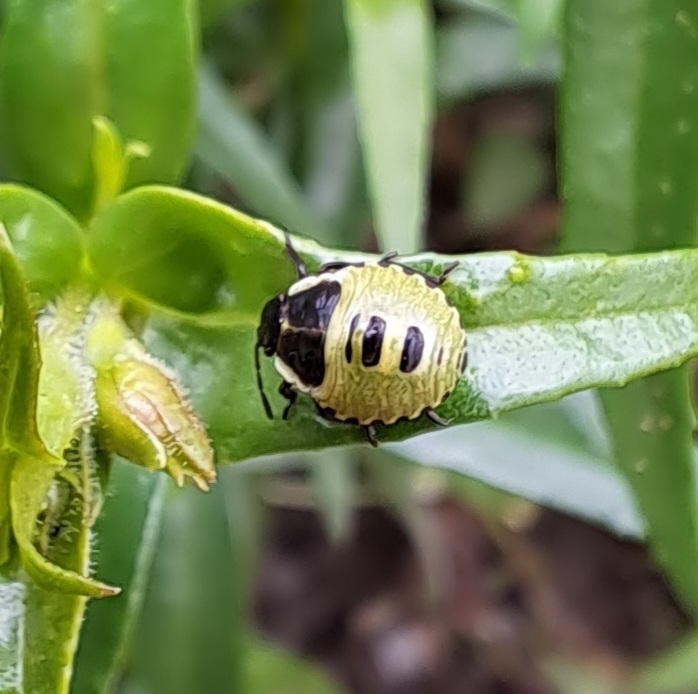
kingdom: Animalia
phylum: Arthropoda
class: Insecta
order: Hemiptera
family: Pentatomidae
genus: Palomena
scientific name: Palomena prasina
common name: Green shieldbug
